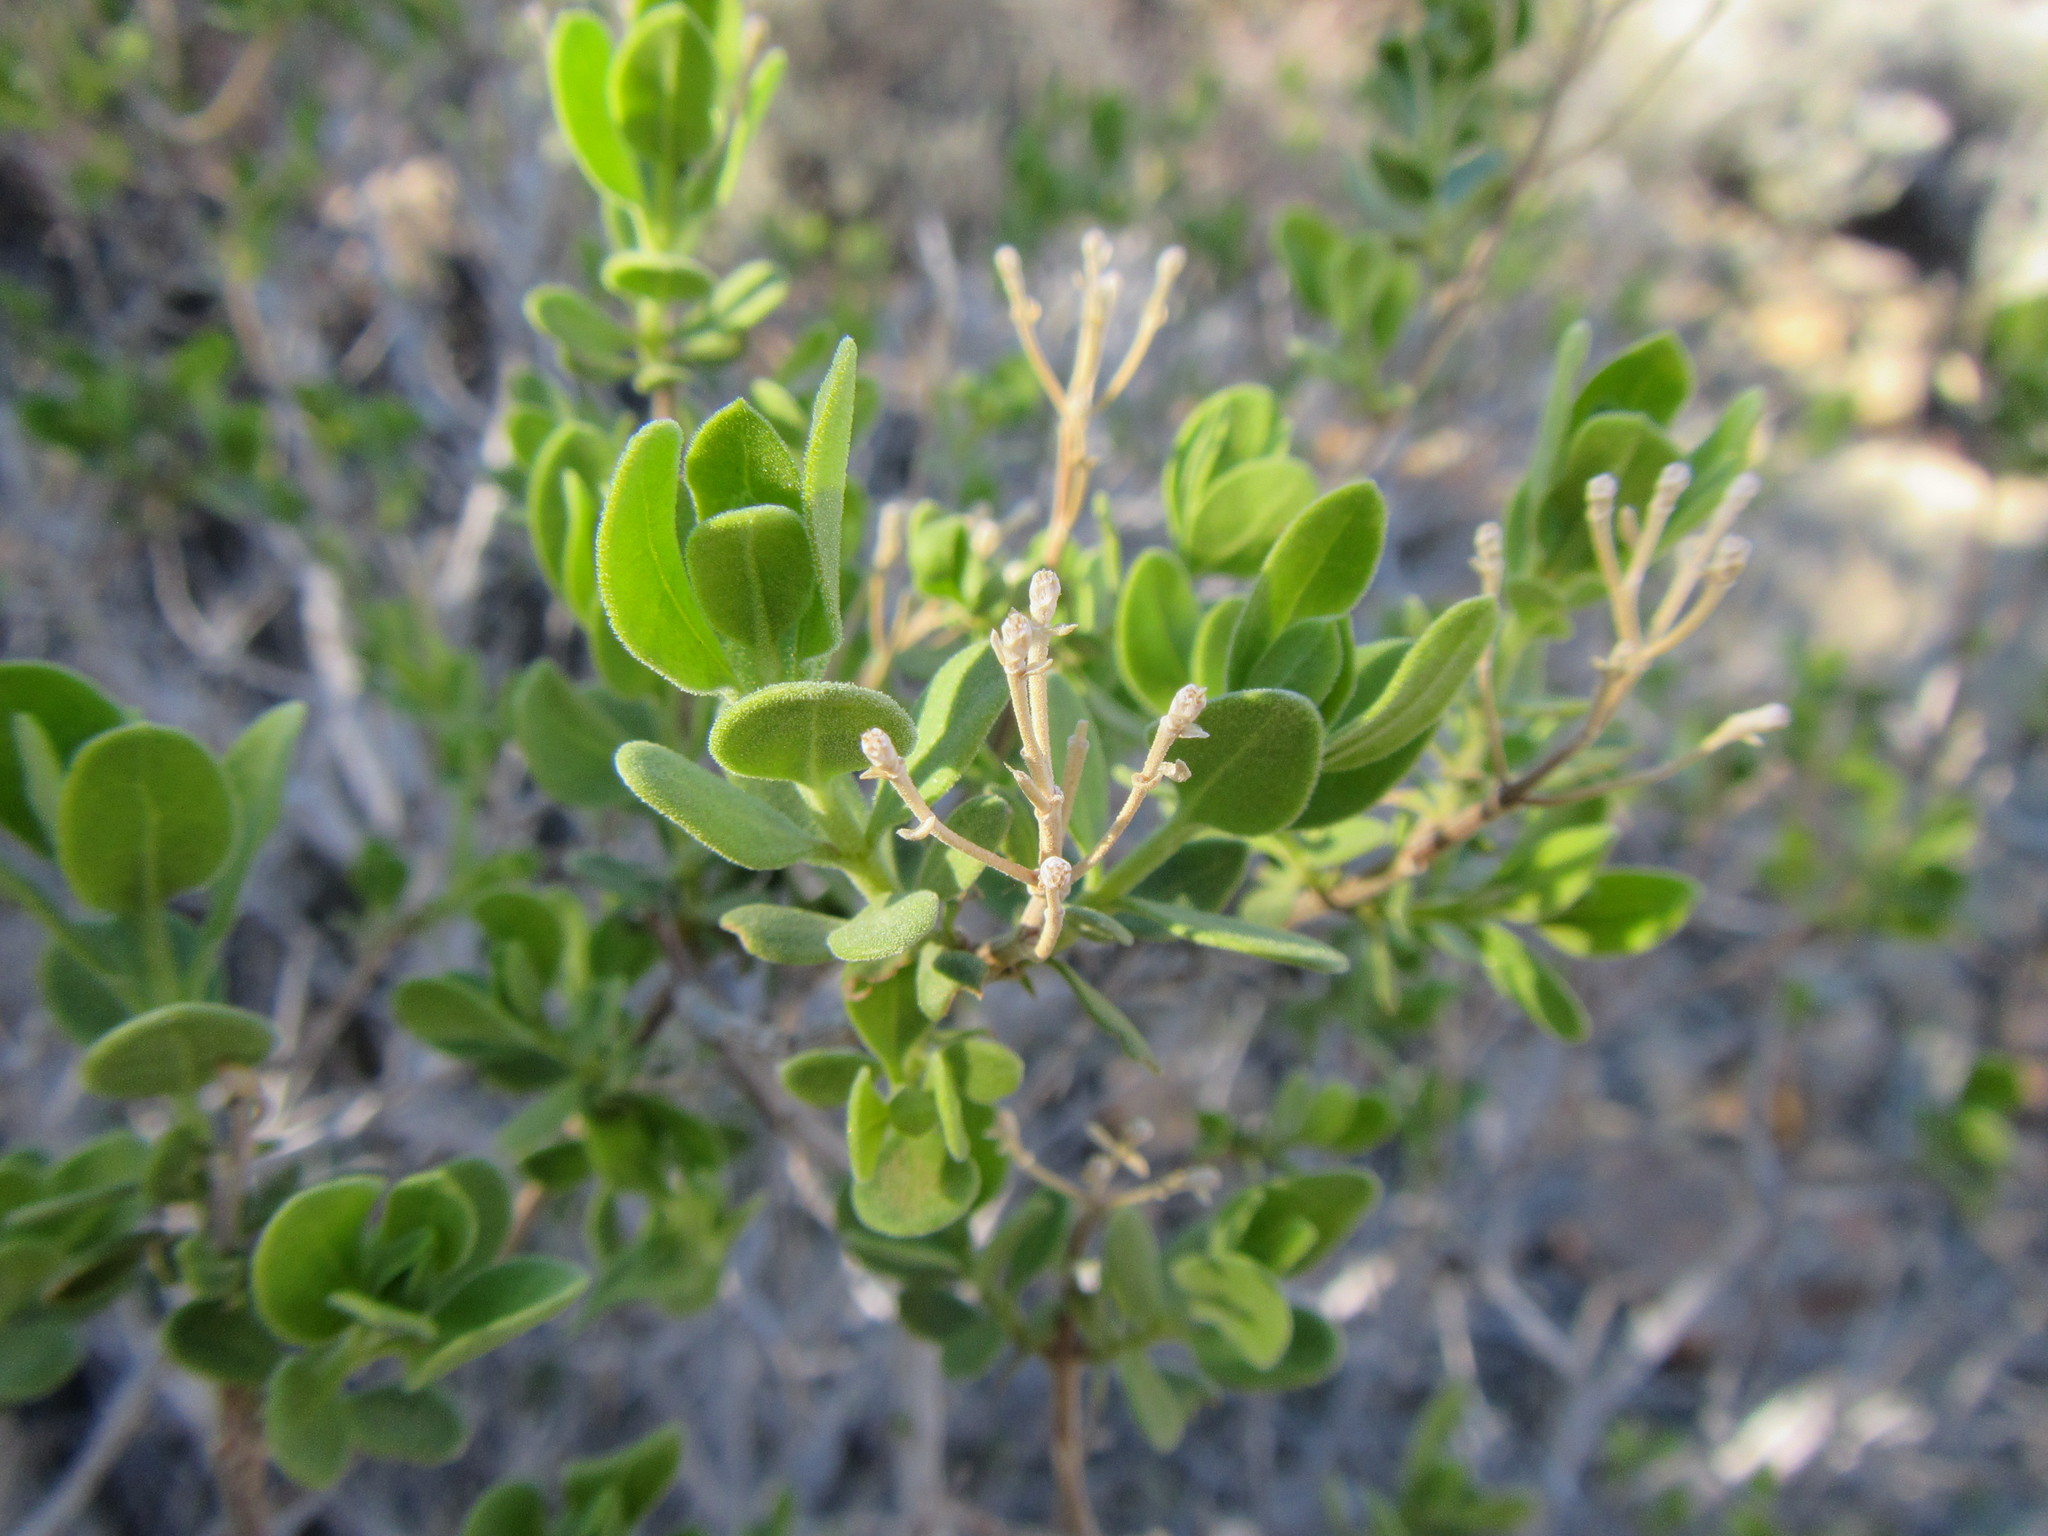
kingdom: Plantae
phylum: Tracheophyta
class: Magnoliopsida
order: Asterales
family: Asteraceae
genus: Pteronia
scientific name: Pteronia divaricata
